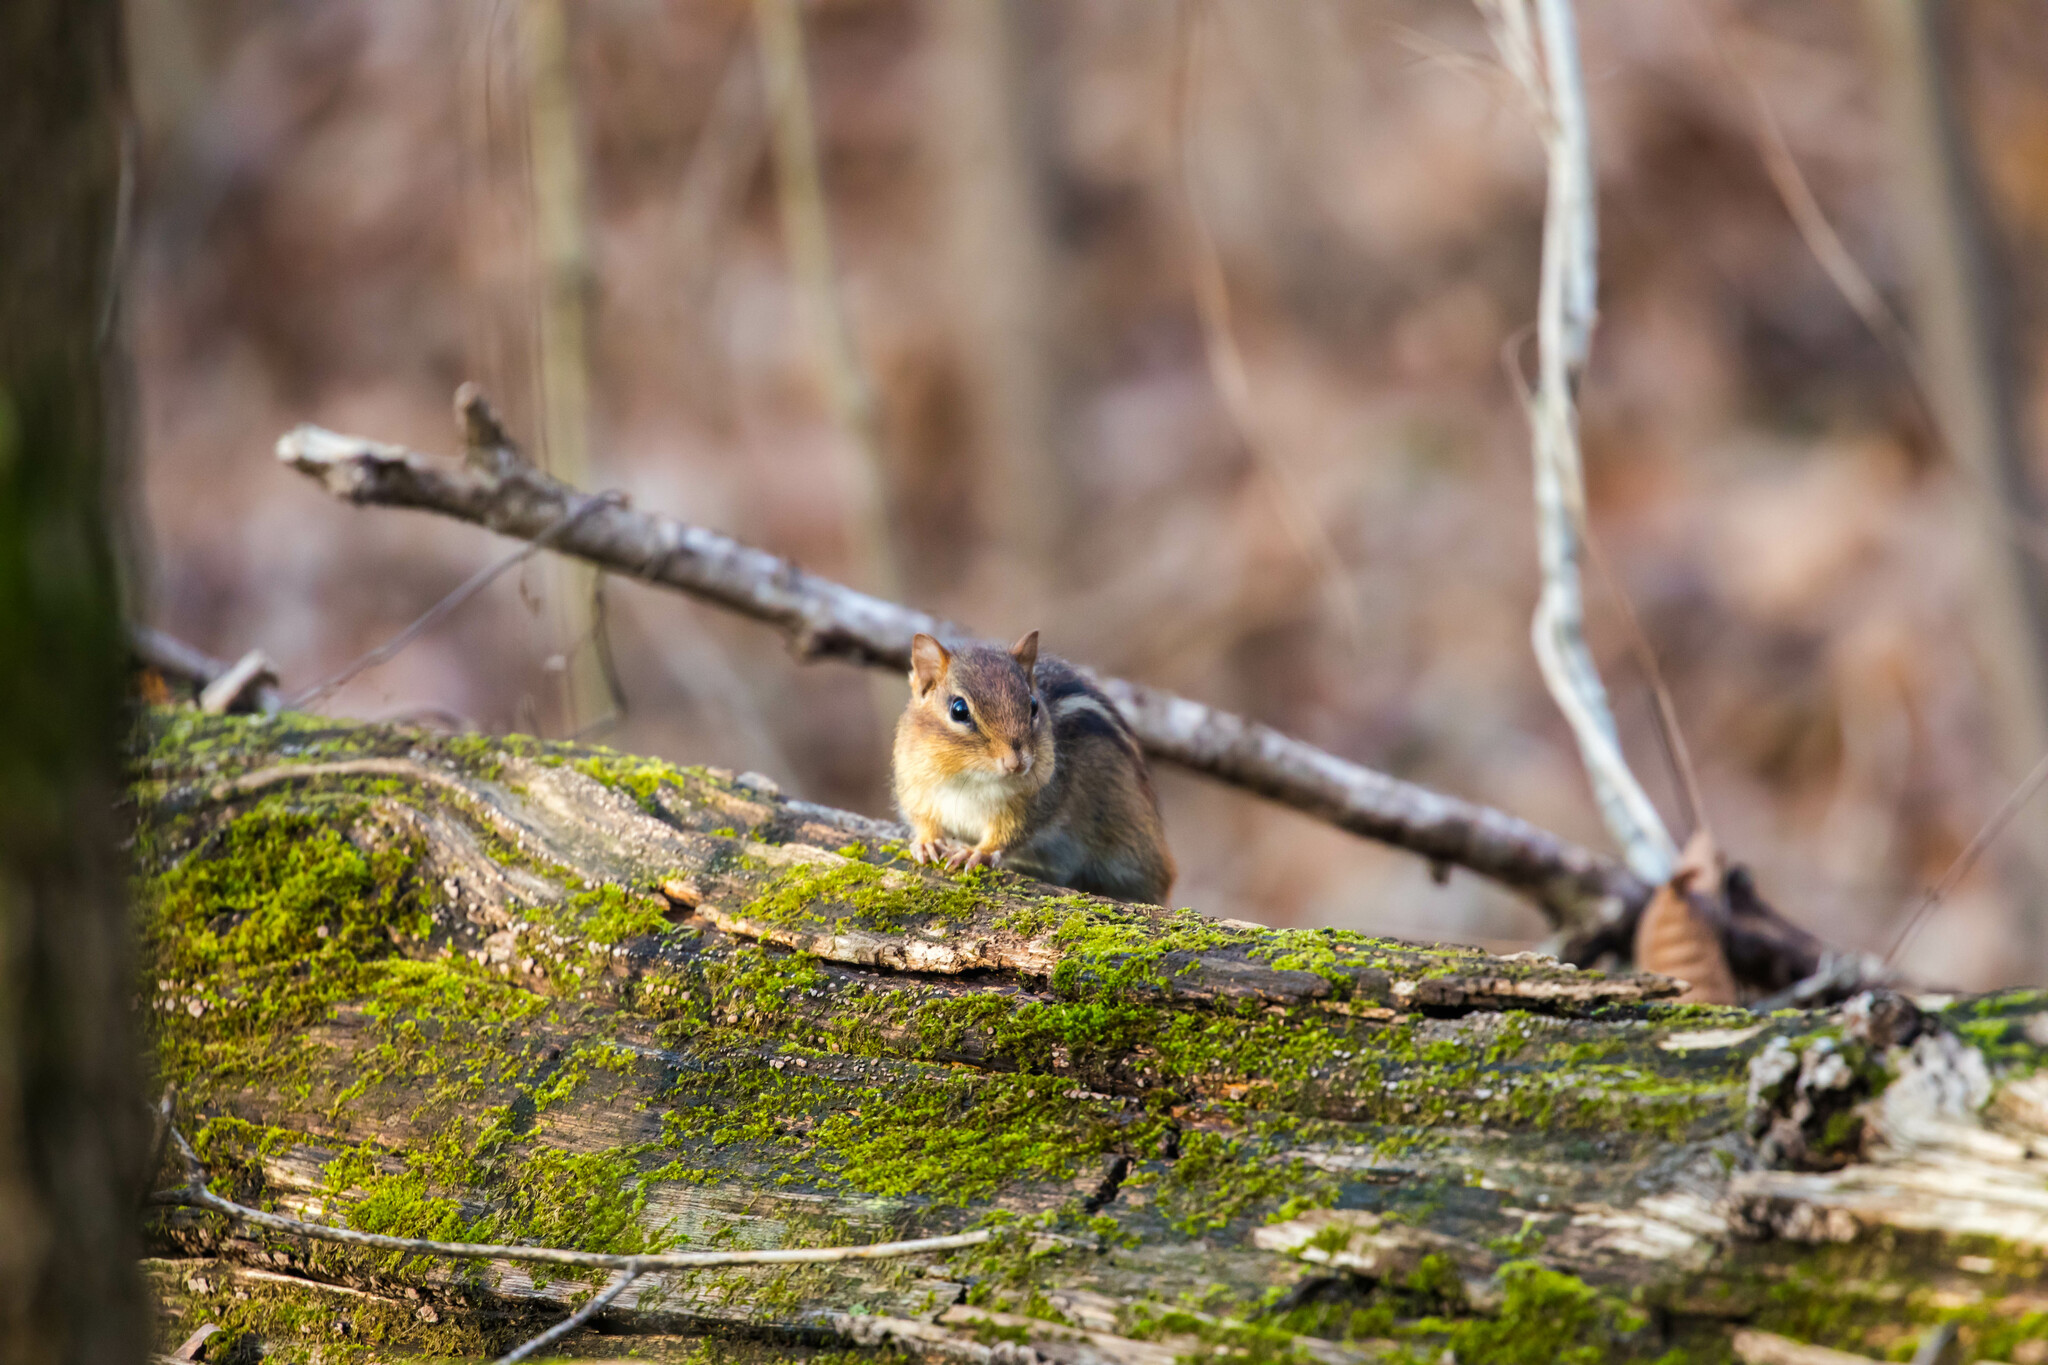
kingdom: Animalia
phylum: Chordata
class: Mammalia
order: Rodentia
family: Sciuridae
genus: Tamias
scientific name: Tamias striatus
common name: Eastern chipmunk
